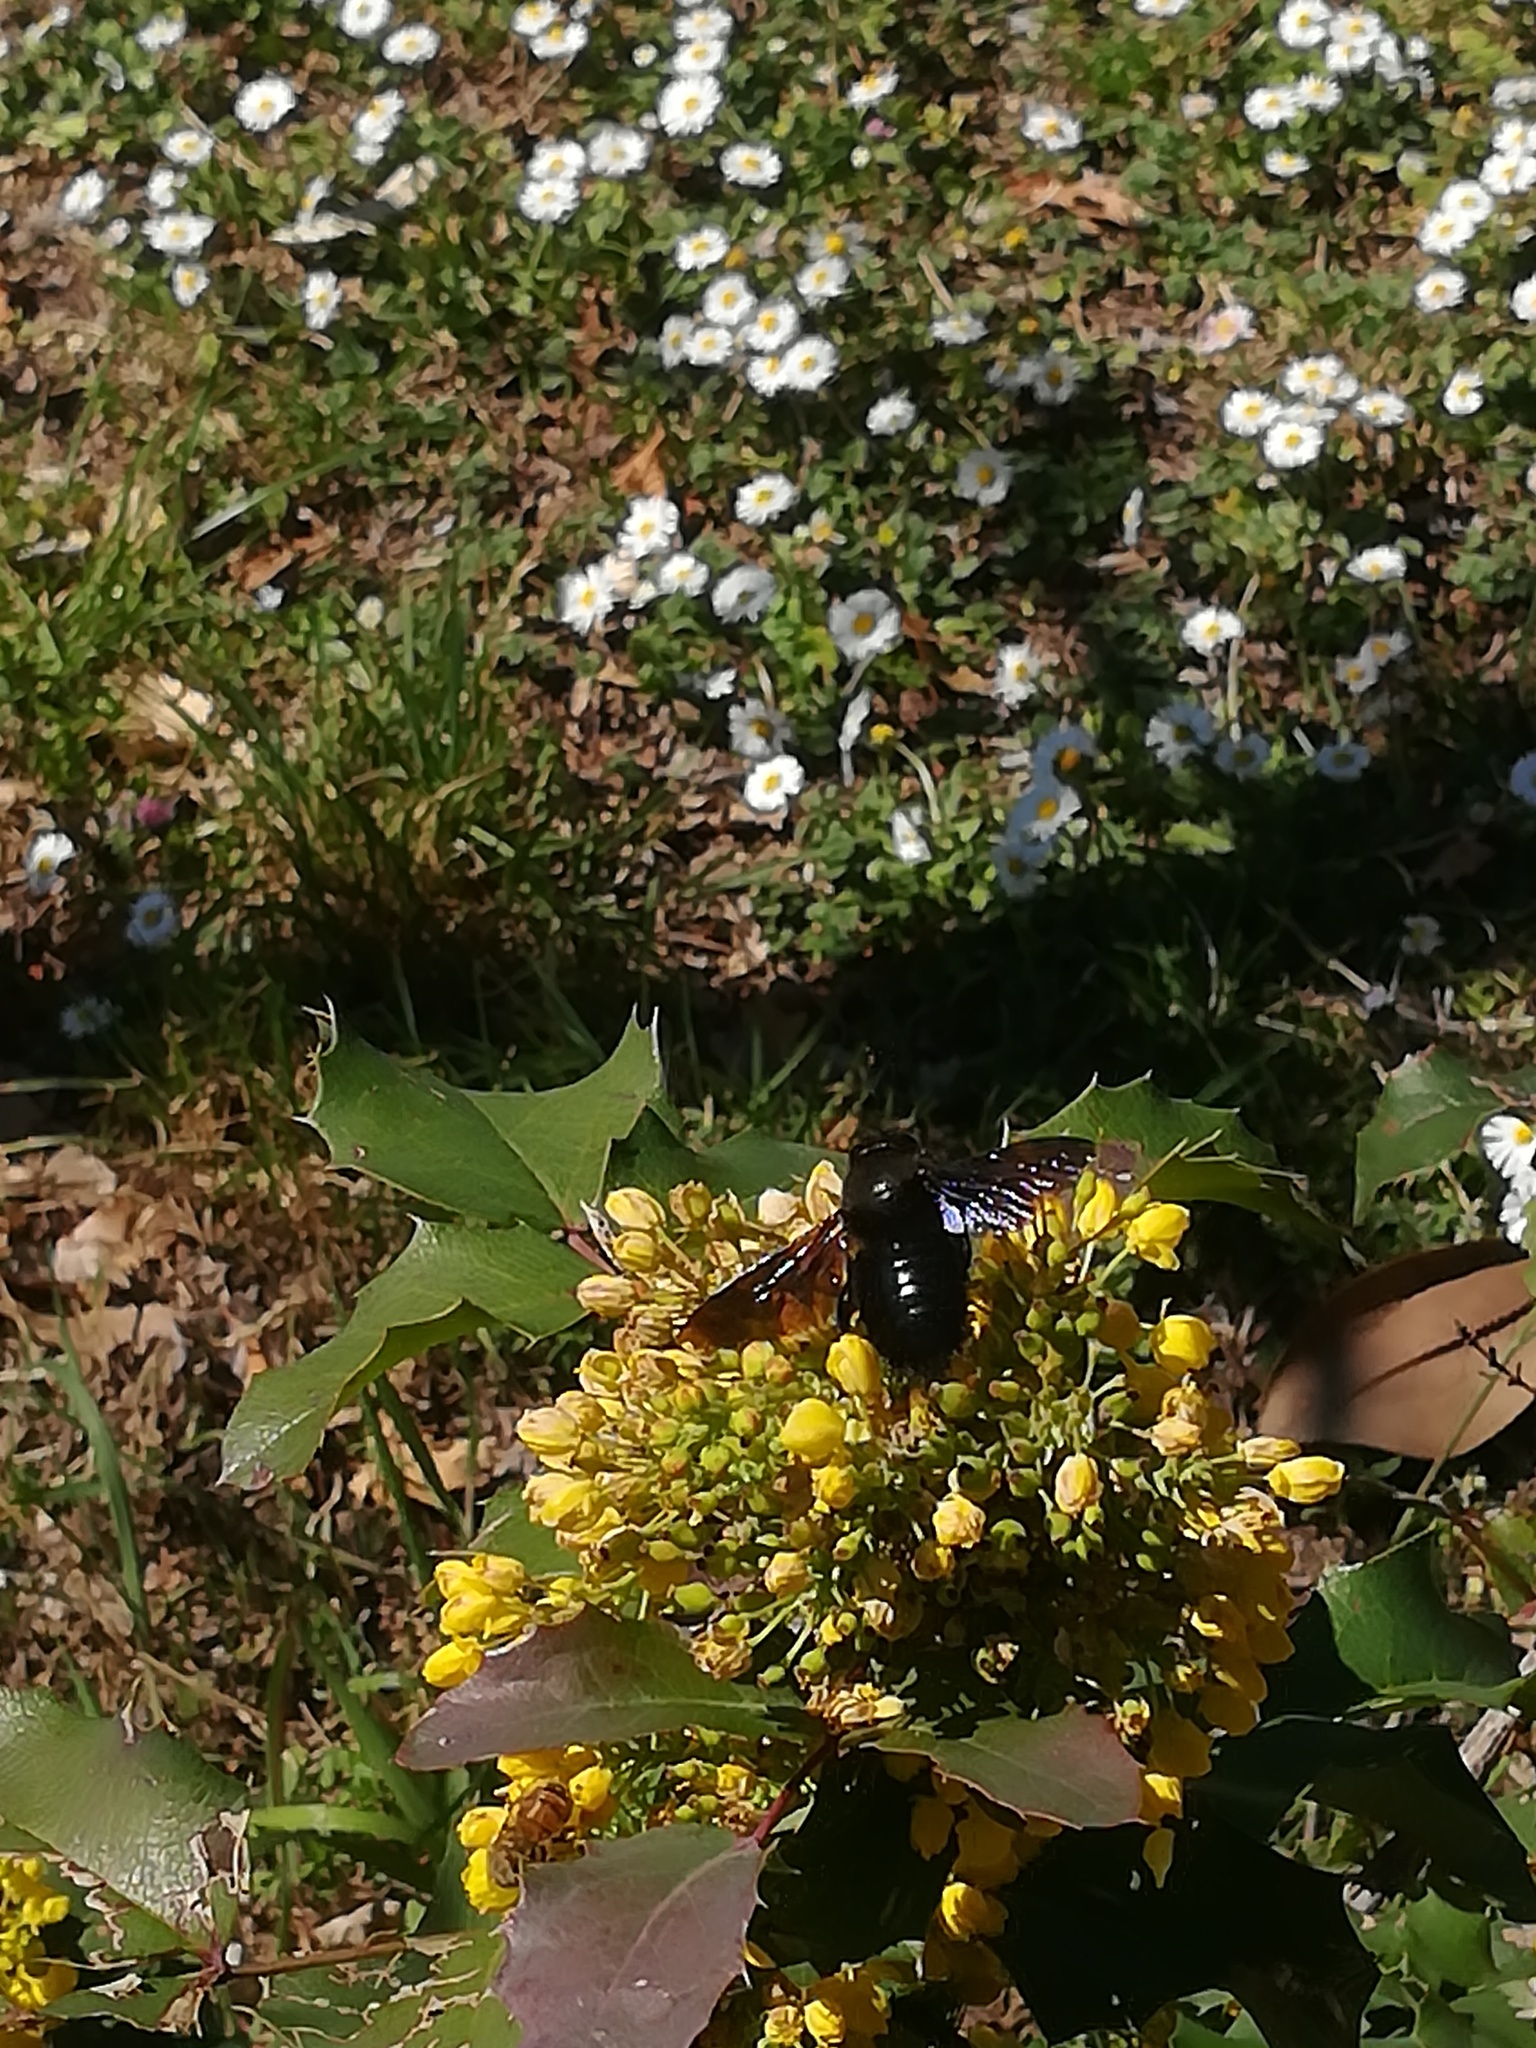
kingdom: Animalia
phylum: Arthropoda
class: Insecta
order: Hymenoptera
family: Apidae
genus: Xylocopa
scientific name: Xylocopa violacea
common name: Violet carpenter bee
